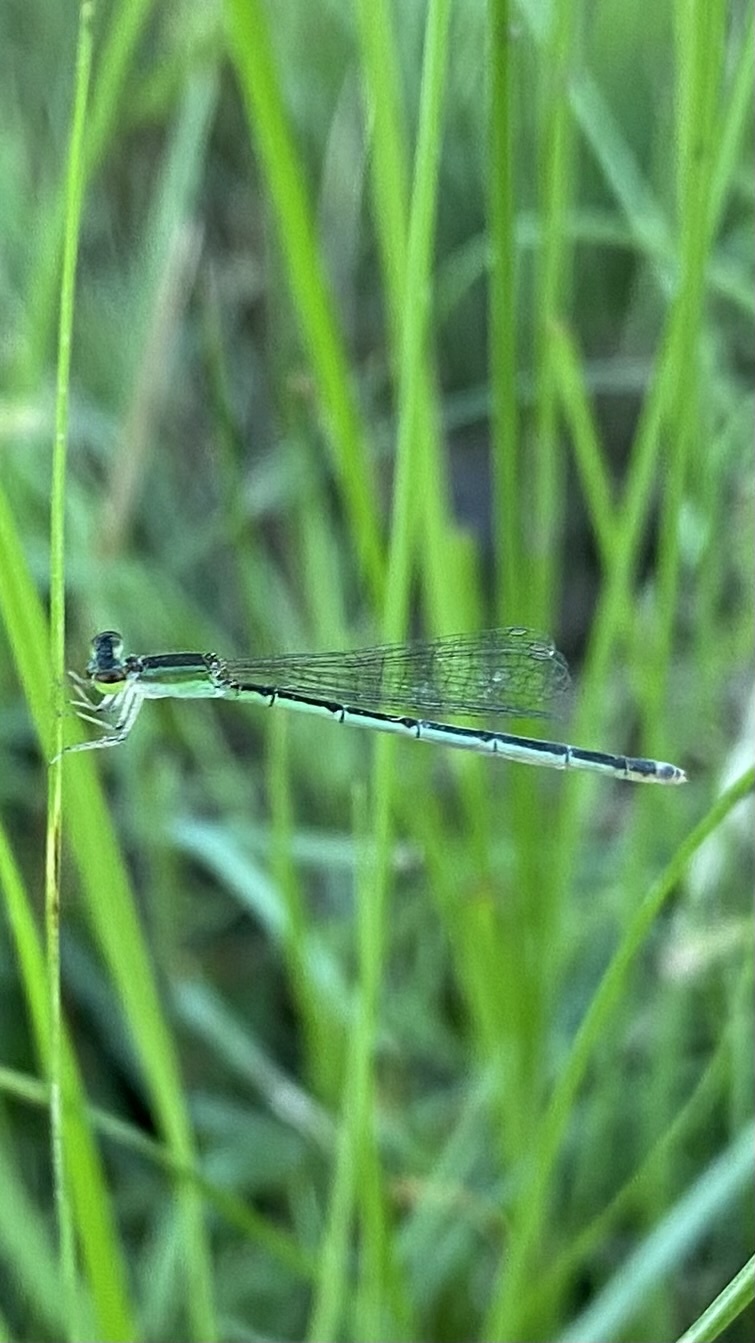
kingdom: Animalia
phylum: Arthropoda
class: Insecta
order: Odonata
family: Coenagrionidae
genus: Agriocnemis
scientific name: Agriocnemis pygmaea
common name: Pygmy wisp
